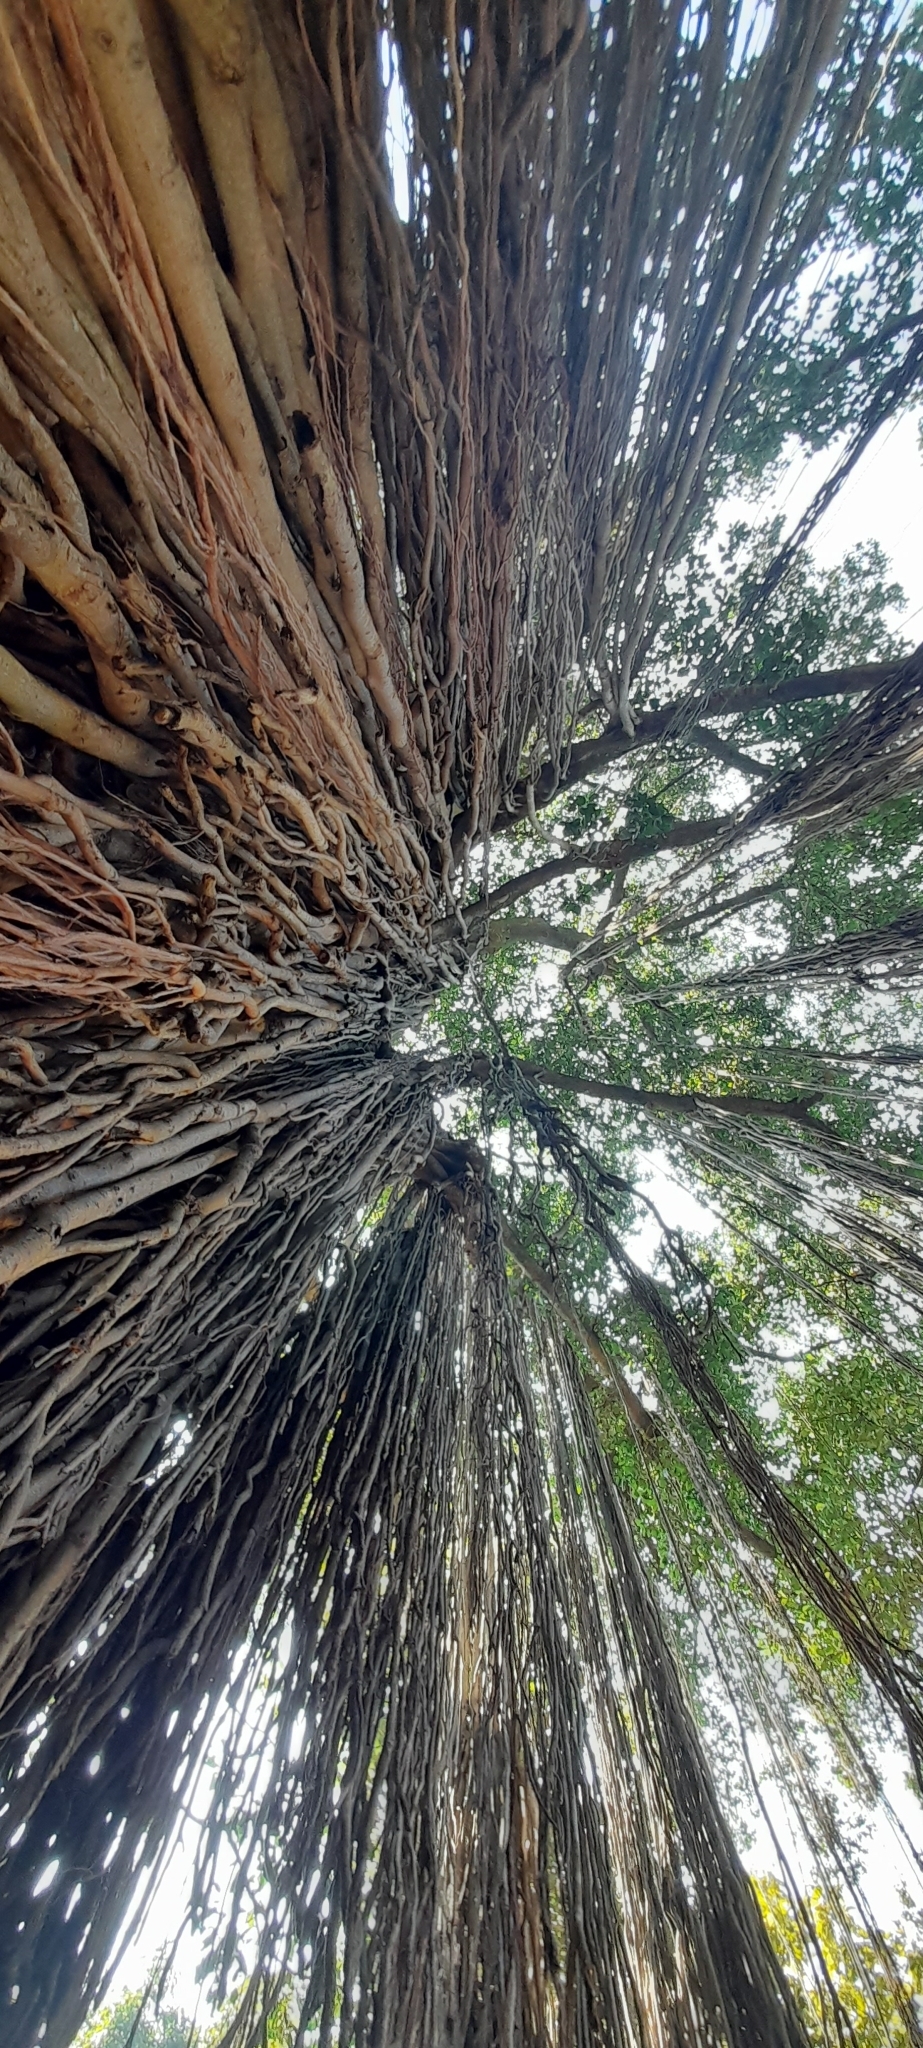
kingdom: Plantae
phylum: Tracheophyta
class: Magnoliopsida
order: Rosales
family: Moraceae
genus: Ficus
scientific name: Ficus benghalensis
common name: Indian banyan
